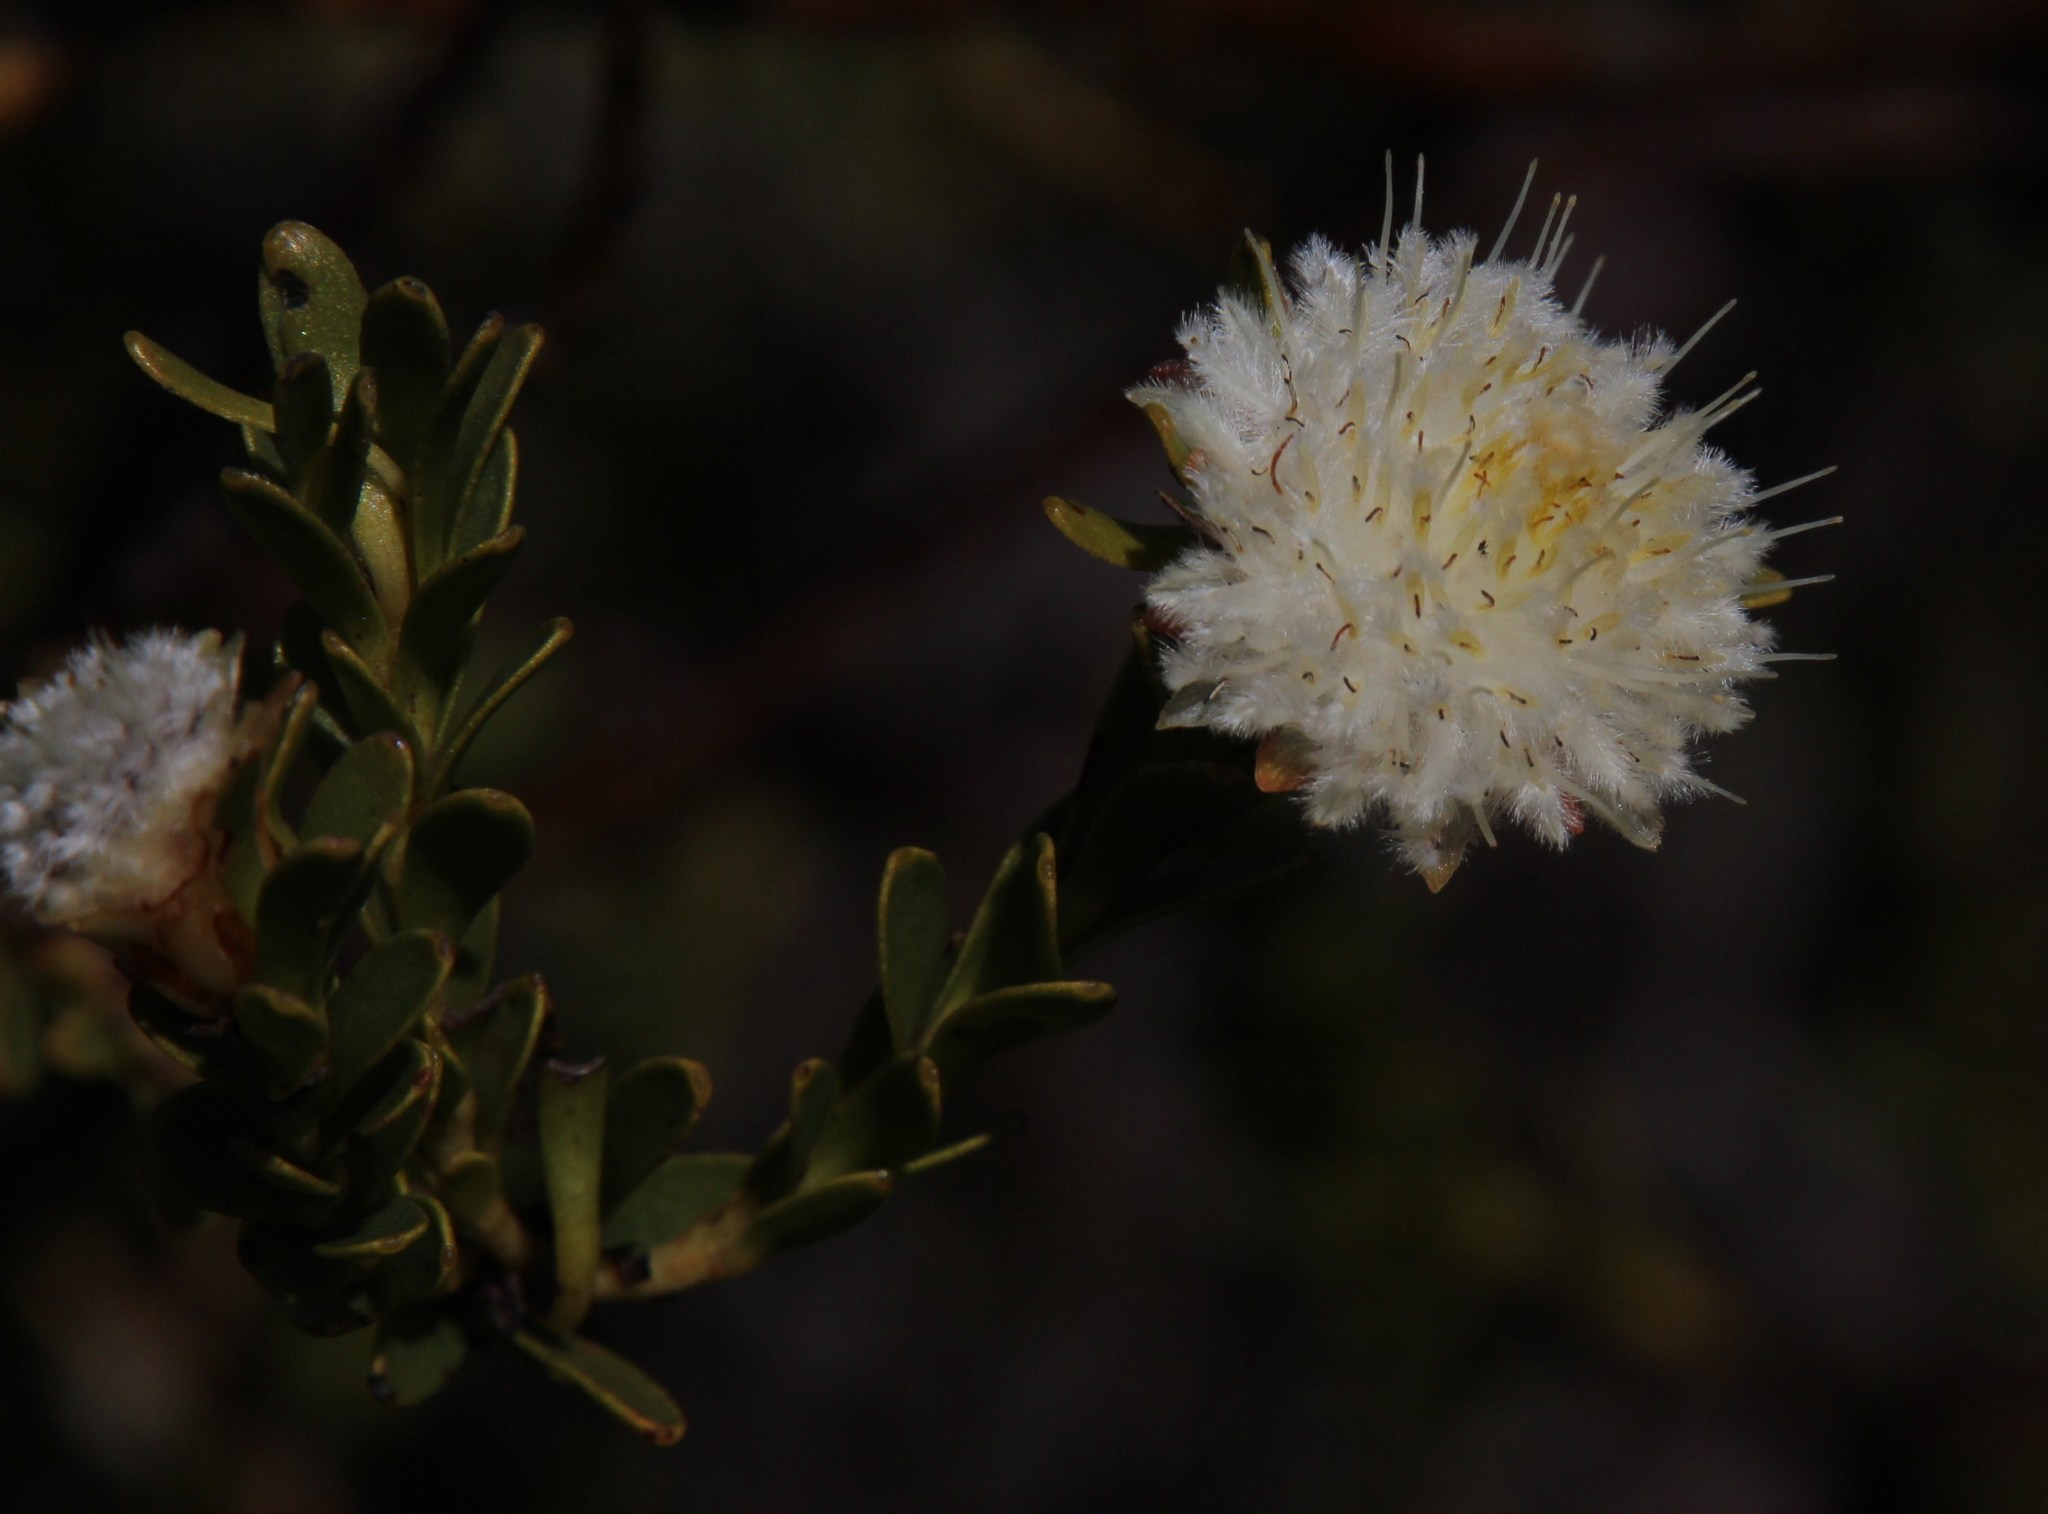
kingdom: Plantae
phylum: Tracheophyta
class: Magnoliopsida
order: Proteales
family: Proteaceae
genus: Diastella
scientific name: Diastella thymelaeoides
